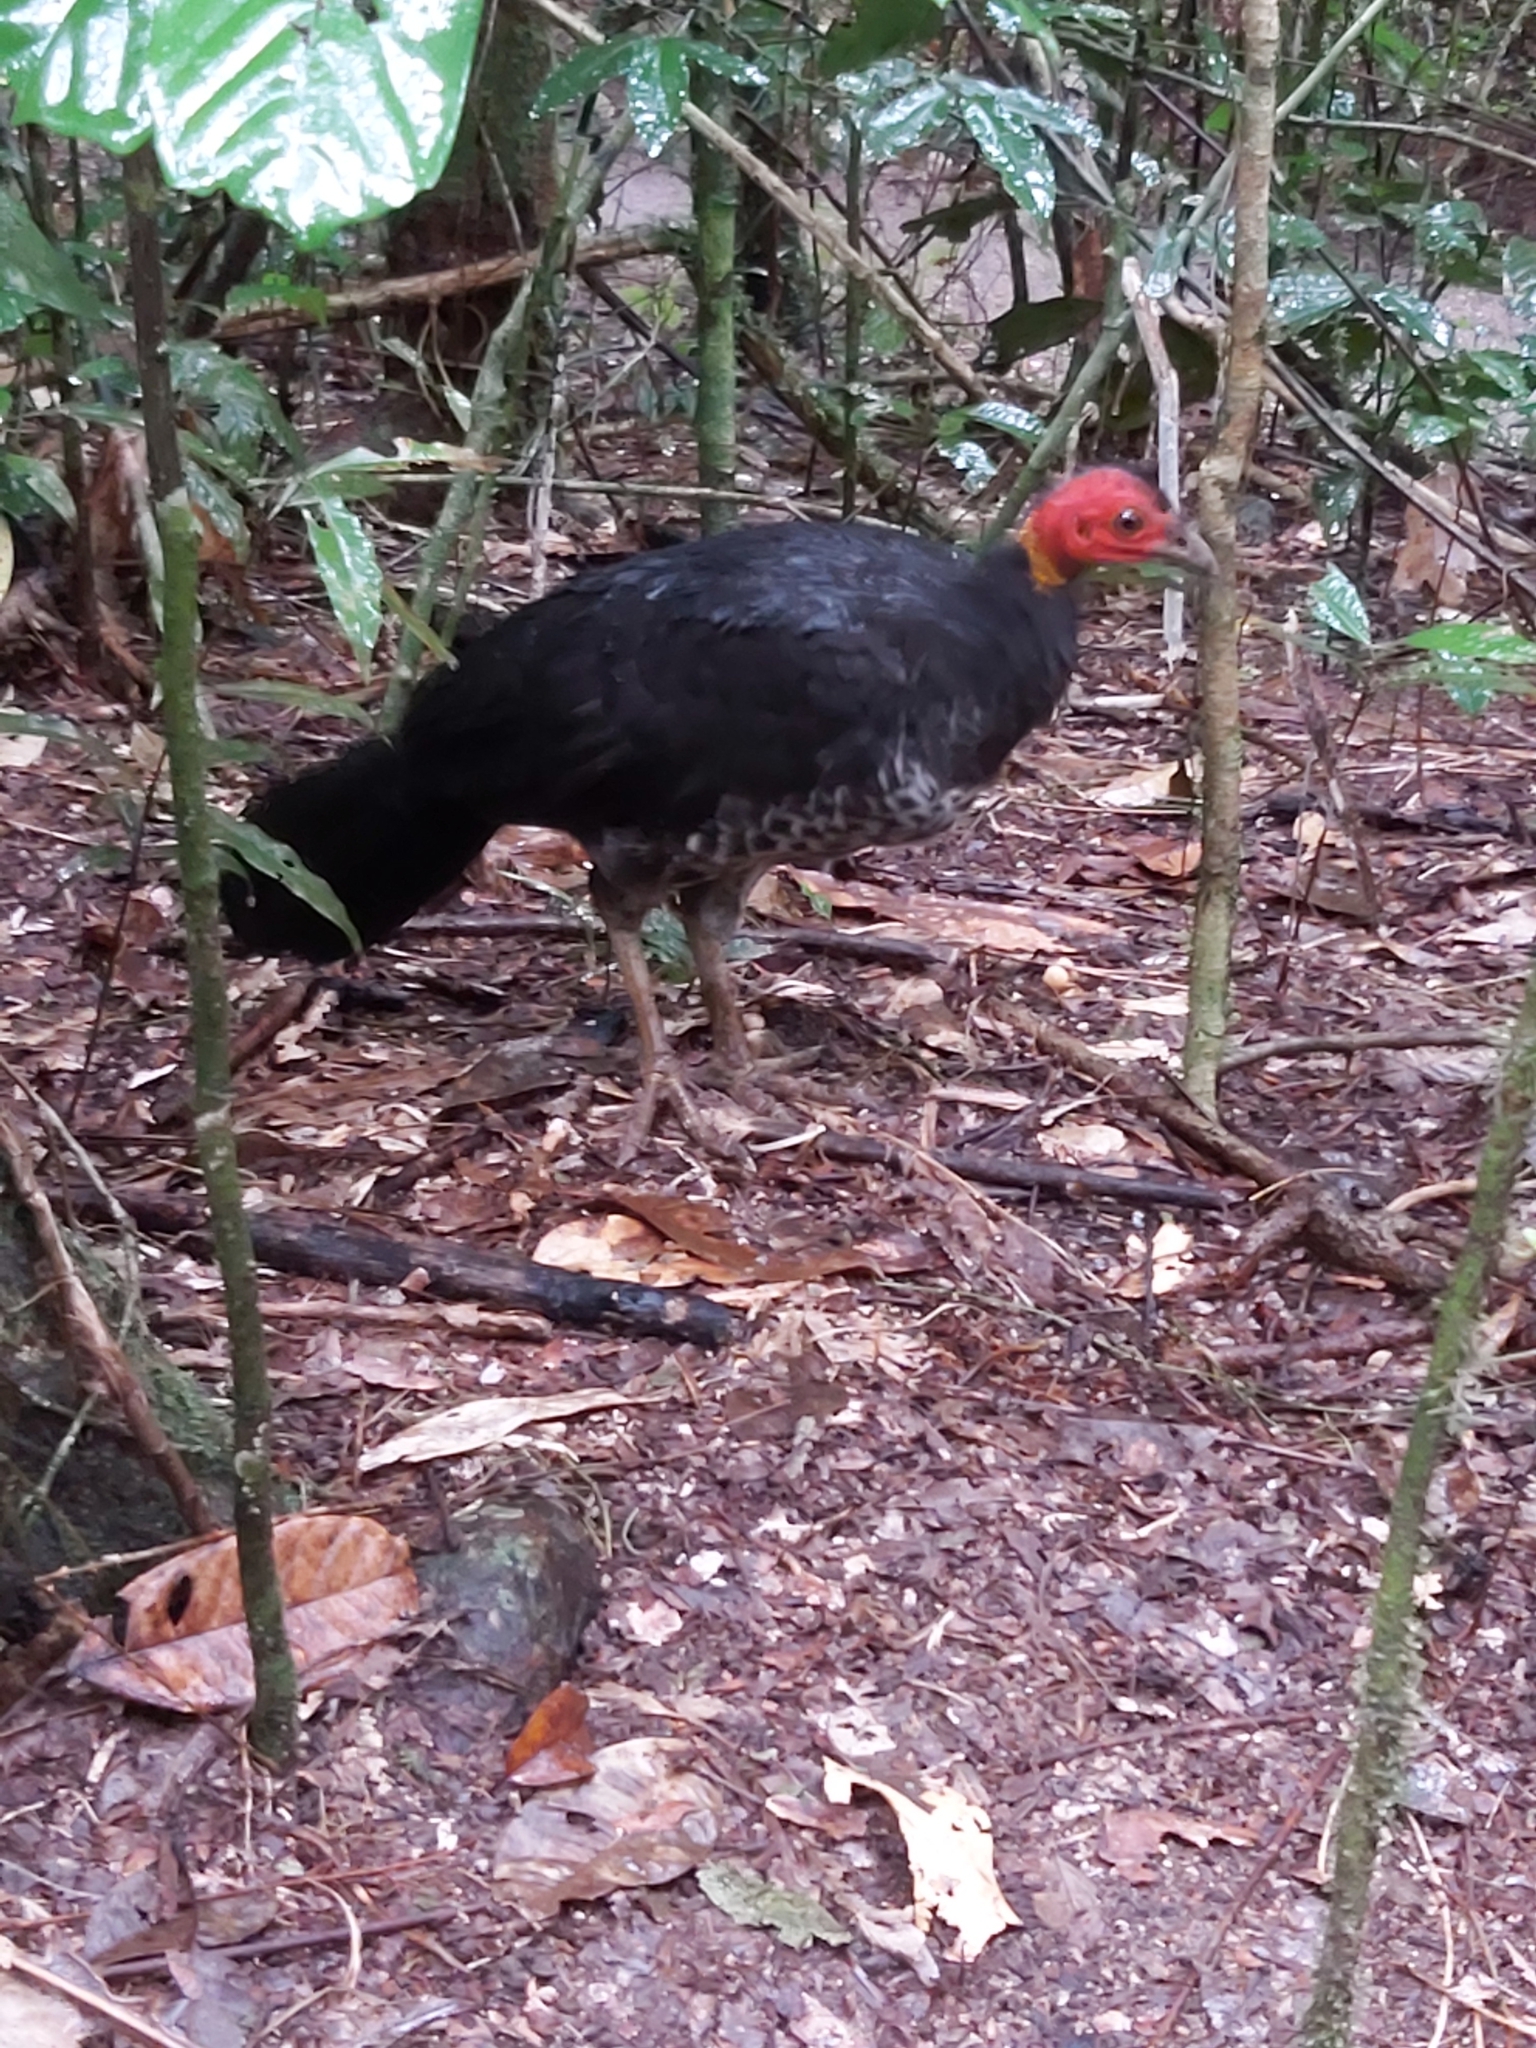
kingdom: Animalia
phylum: Chordata
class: Aves
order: Galliformes
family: Megapodiidae
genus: Alectura
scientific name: Alectura lathami
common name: Australian brushturkey
